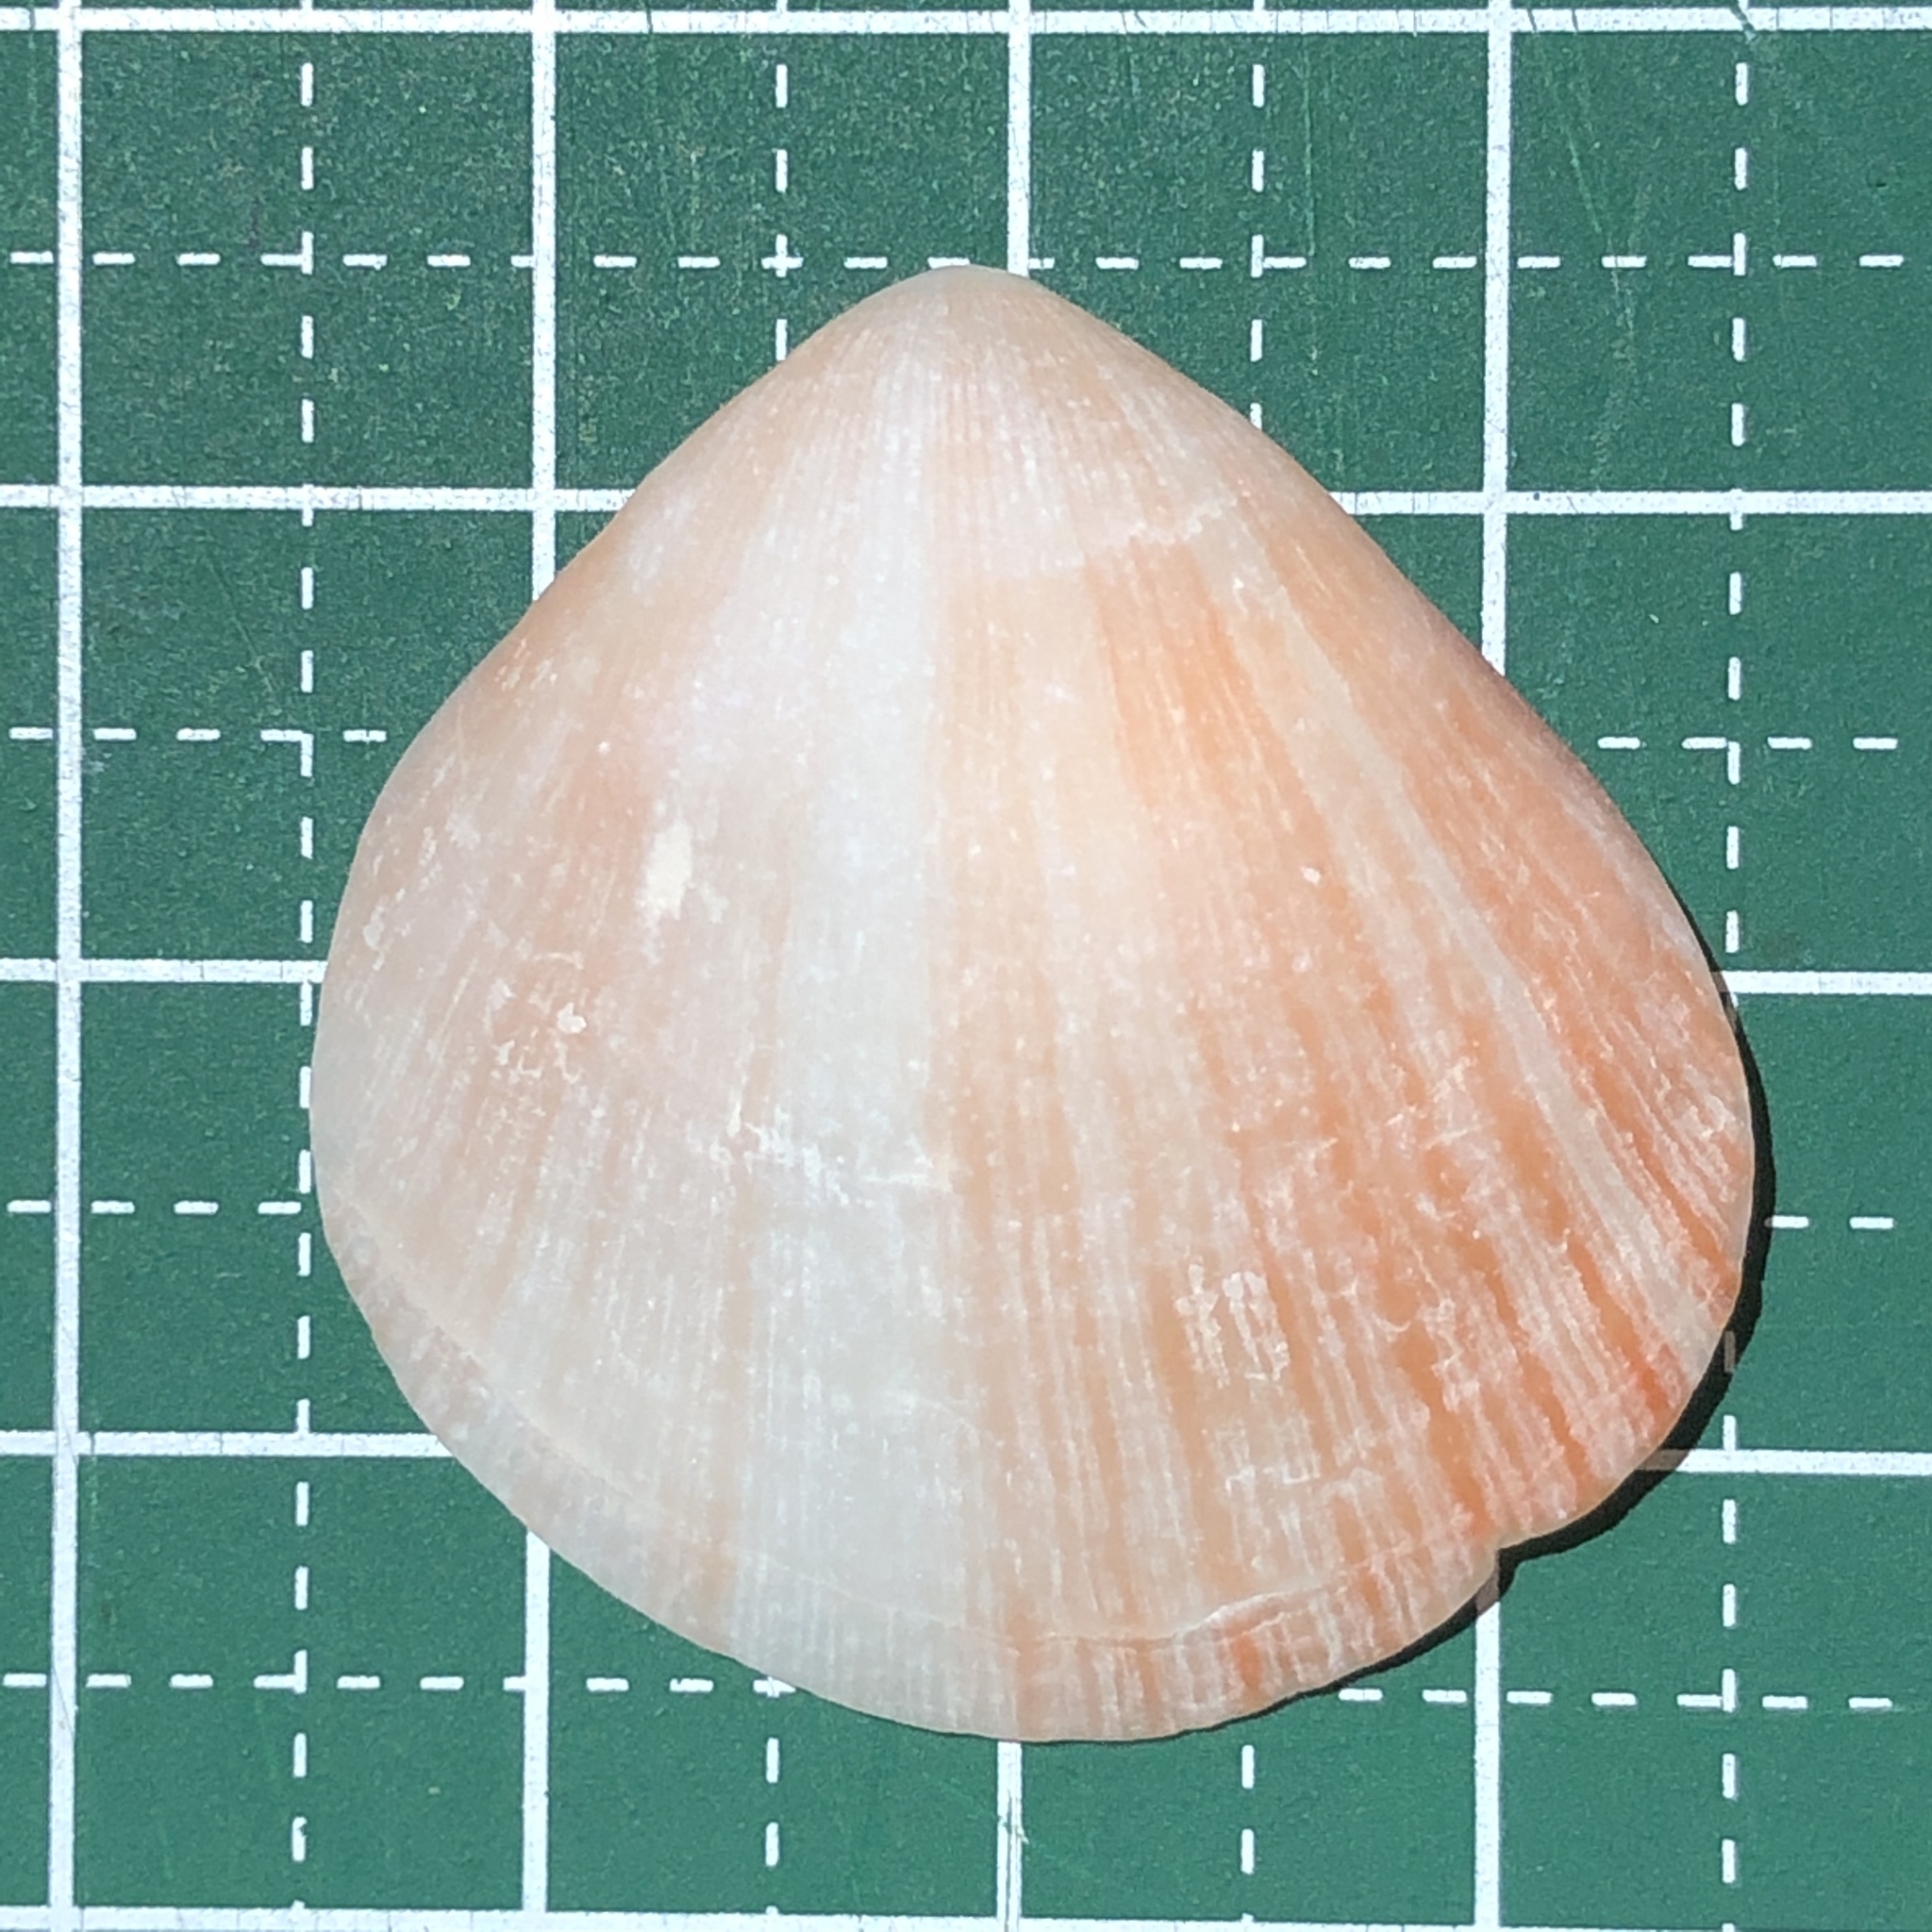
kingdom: Animalia
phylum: Mollusca
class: Bivalvia
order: Pectinida
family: Spondylidae
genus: Spondylus
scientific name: Spondylus anacanthus
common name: Nude thorny oyster
